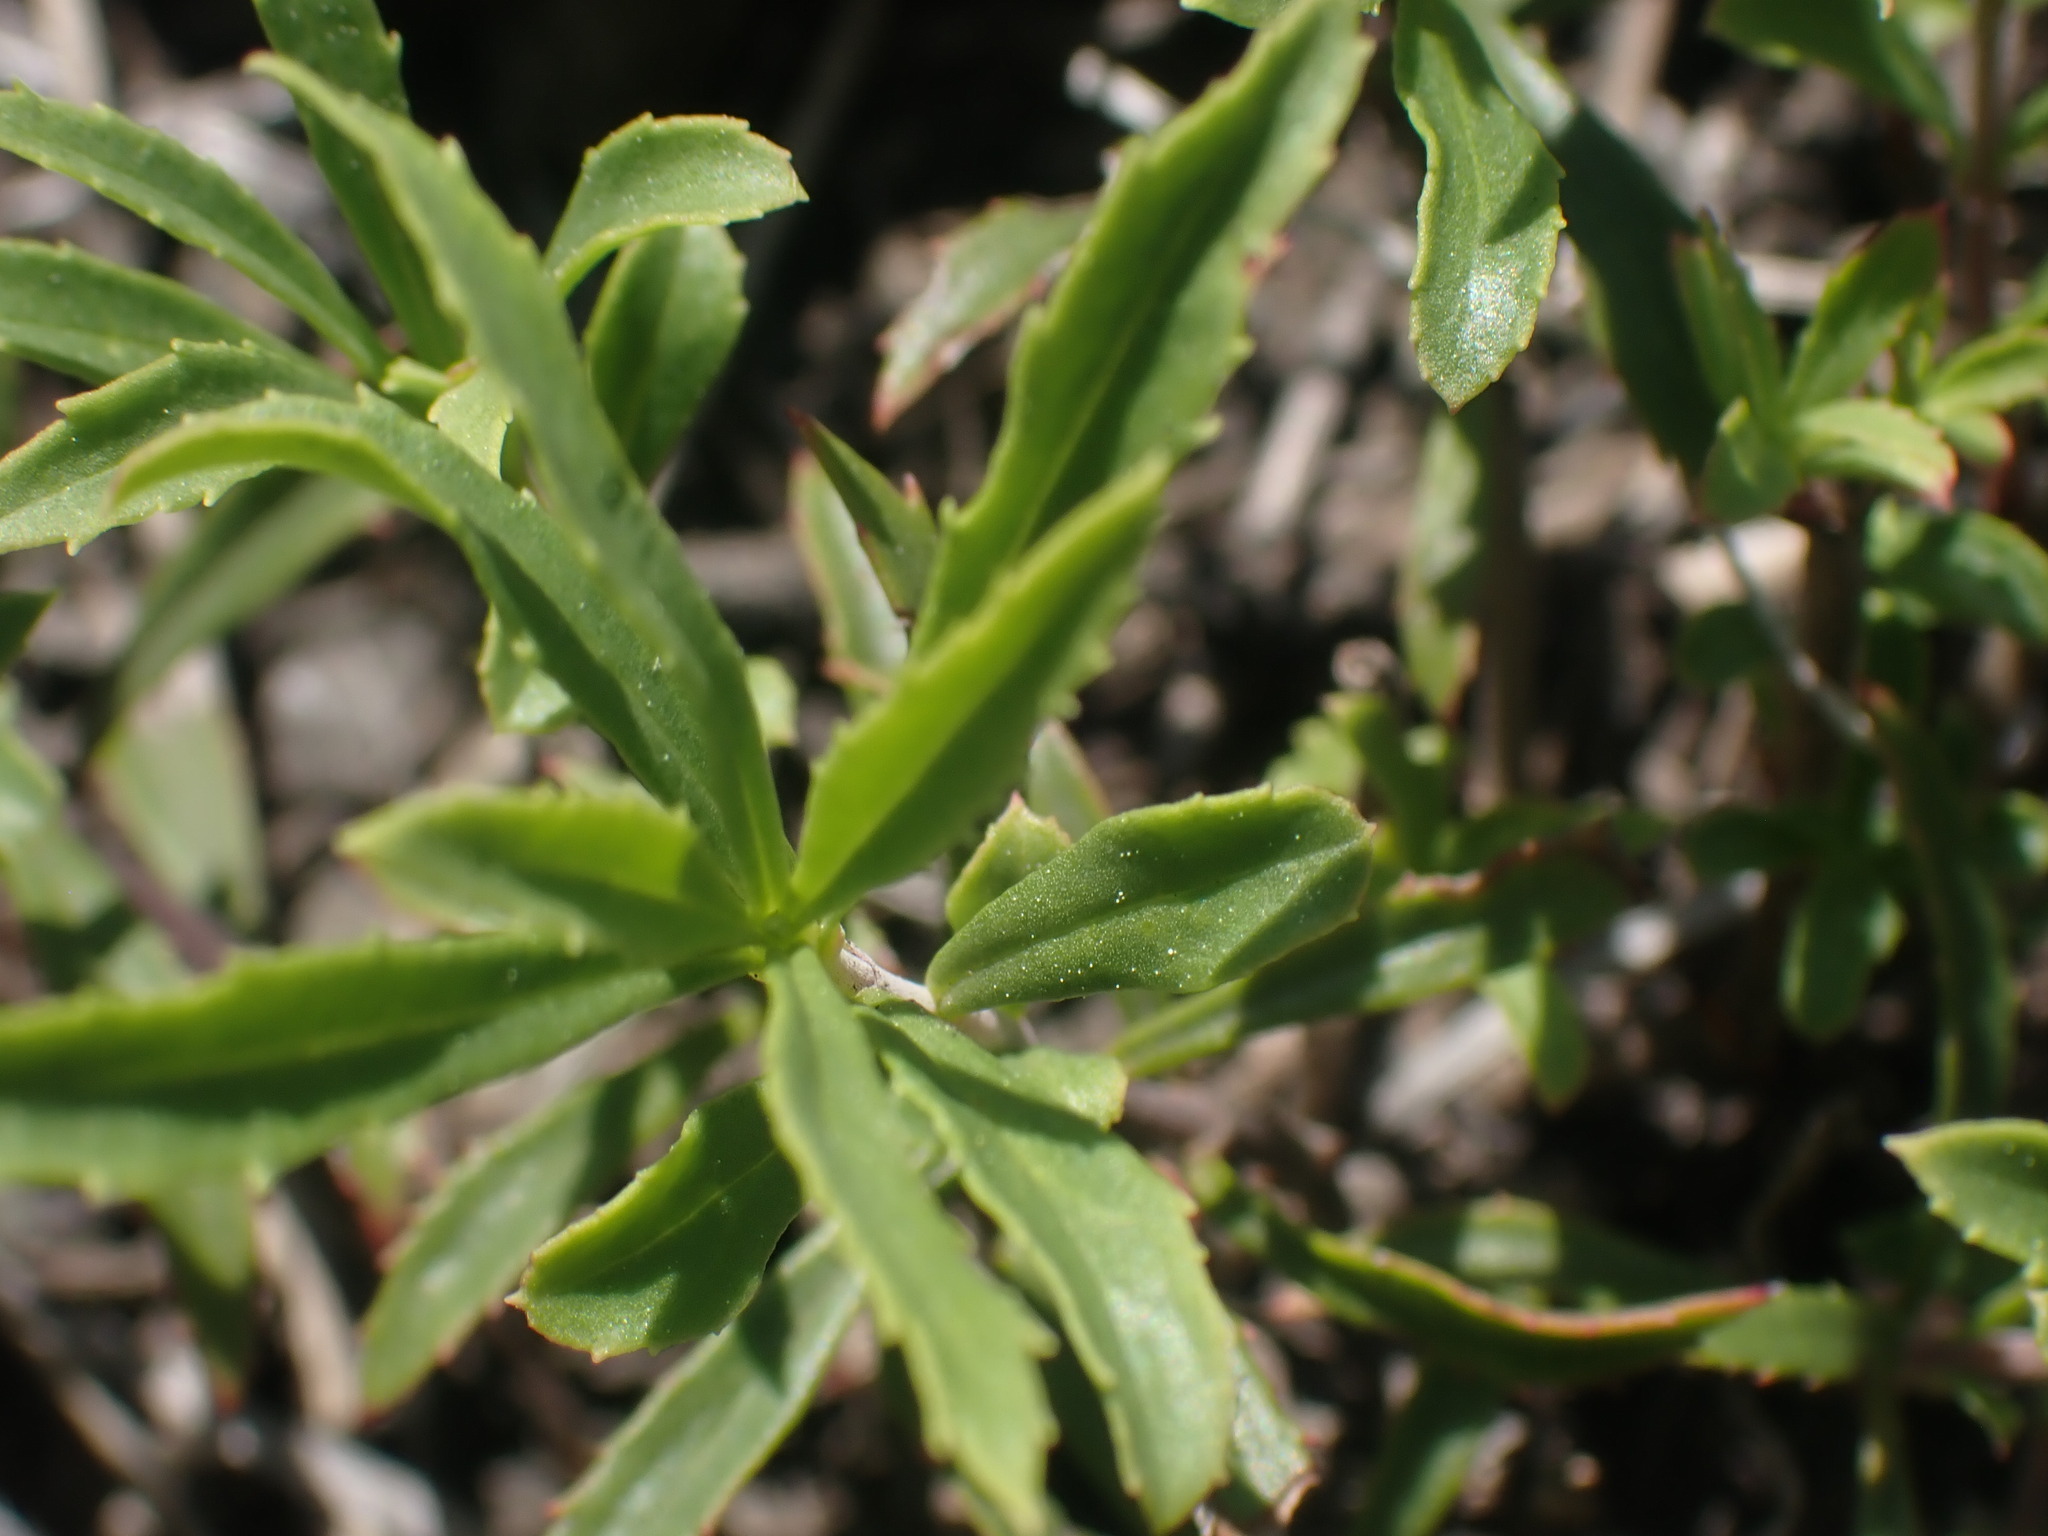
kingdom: Plantae
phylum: Tracheophyta
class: Magnoliopsida
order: Lamiales
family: Plantaginaceae
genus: Penstemon
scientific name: Penstemon fruticosus
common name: Bush penstemon
